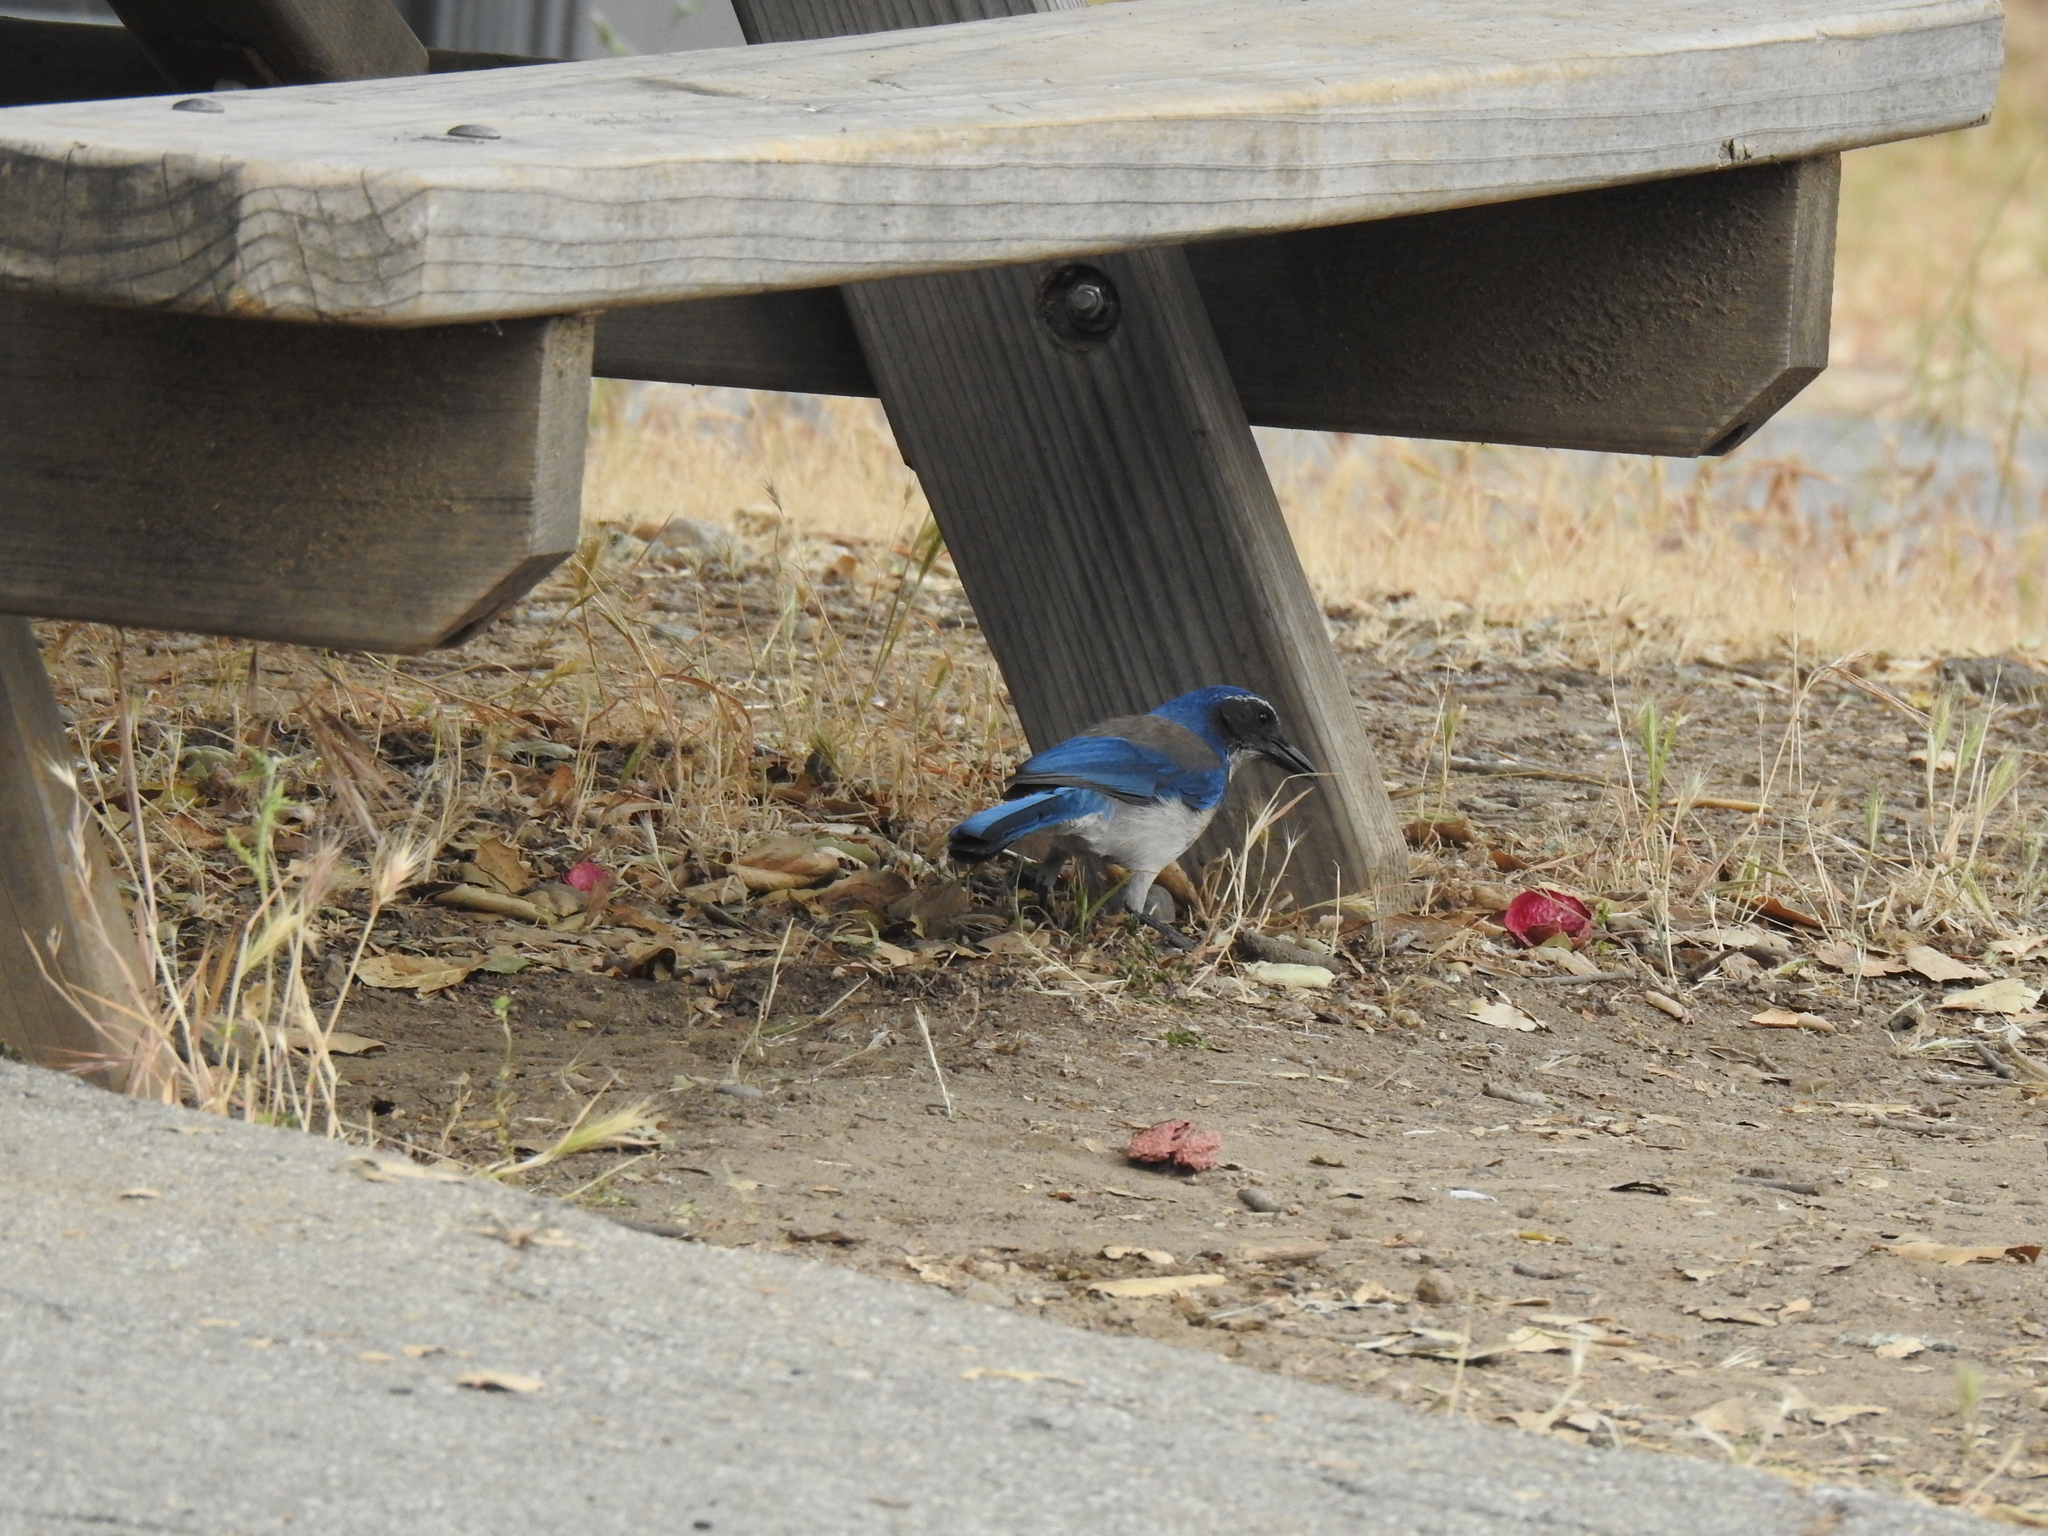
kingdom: Animalia
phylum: Chordata
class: Aves
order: Passeriformes
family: Corvidae
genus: Aphelocoma
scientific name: Aphelocoma californica
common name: California scrub-jay
